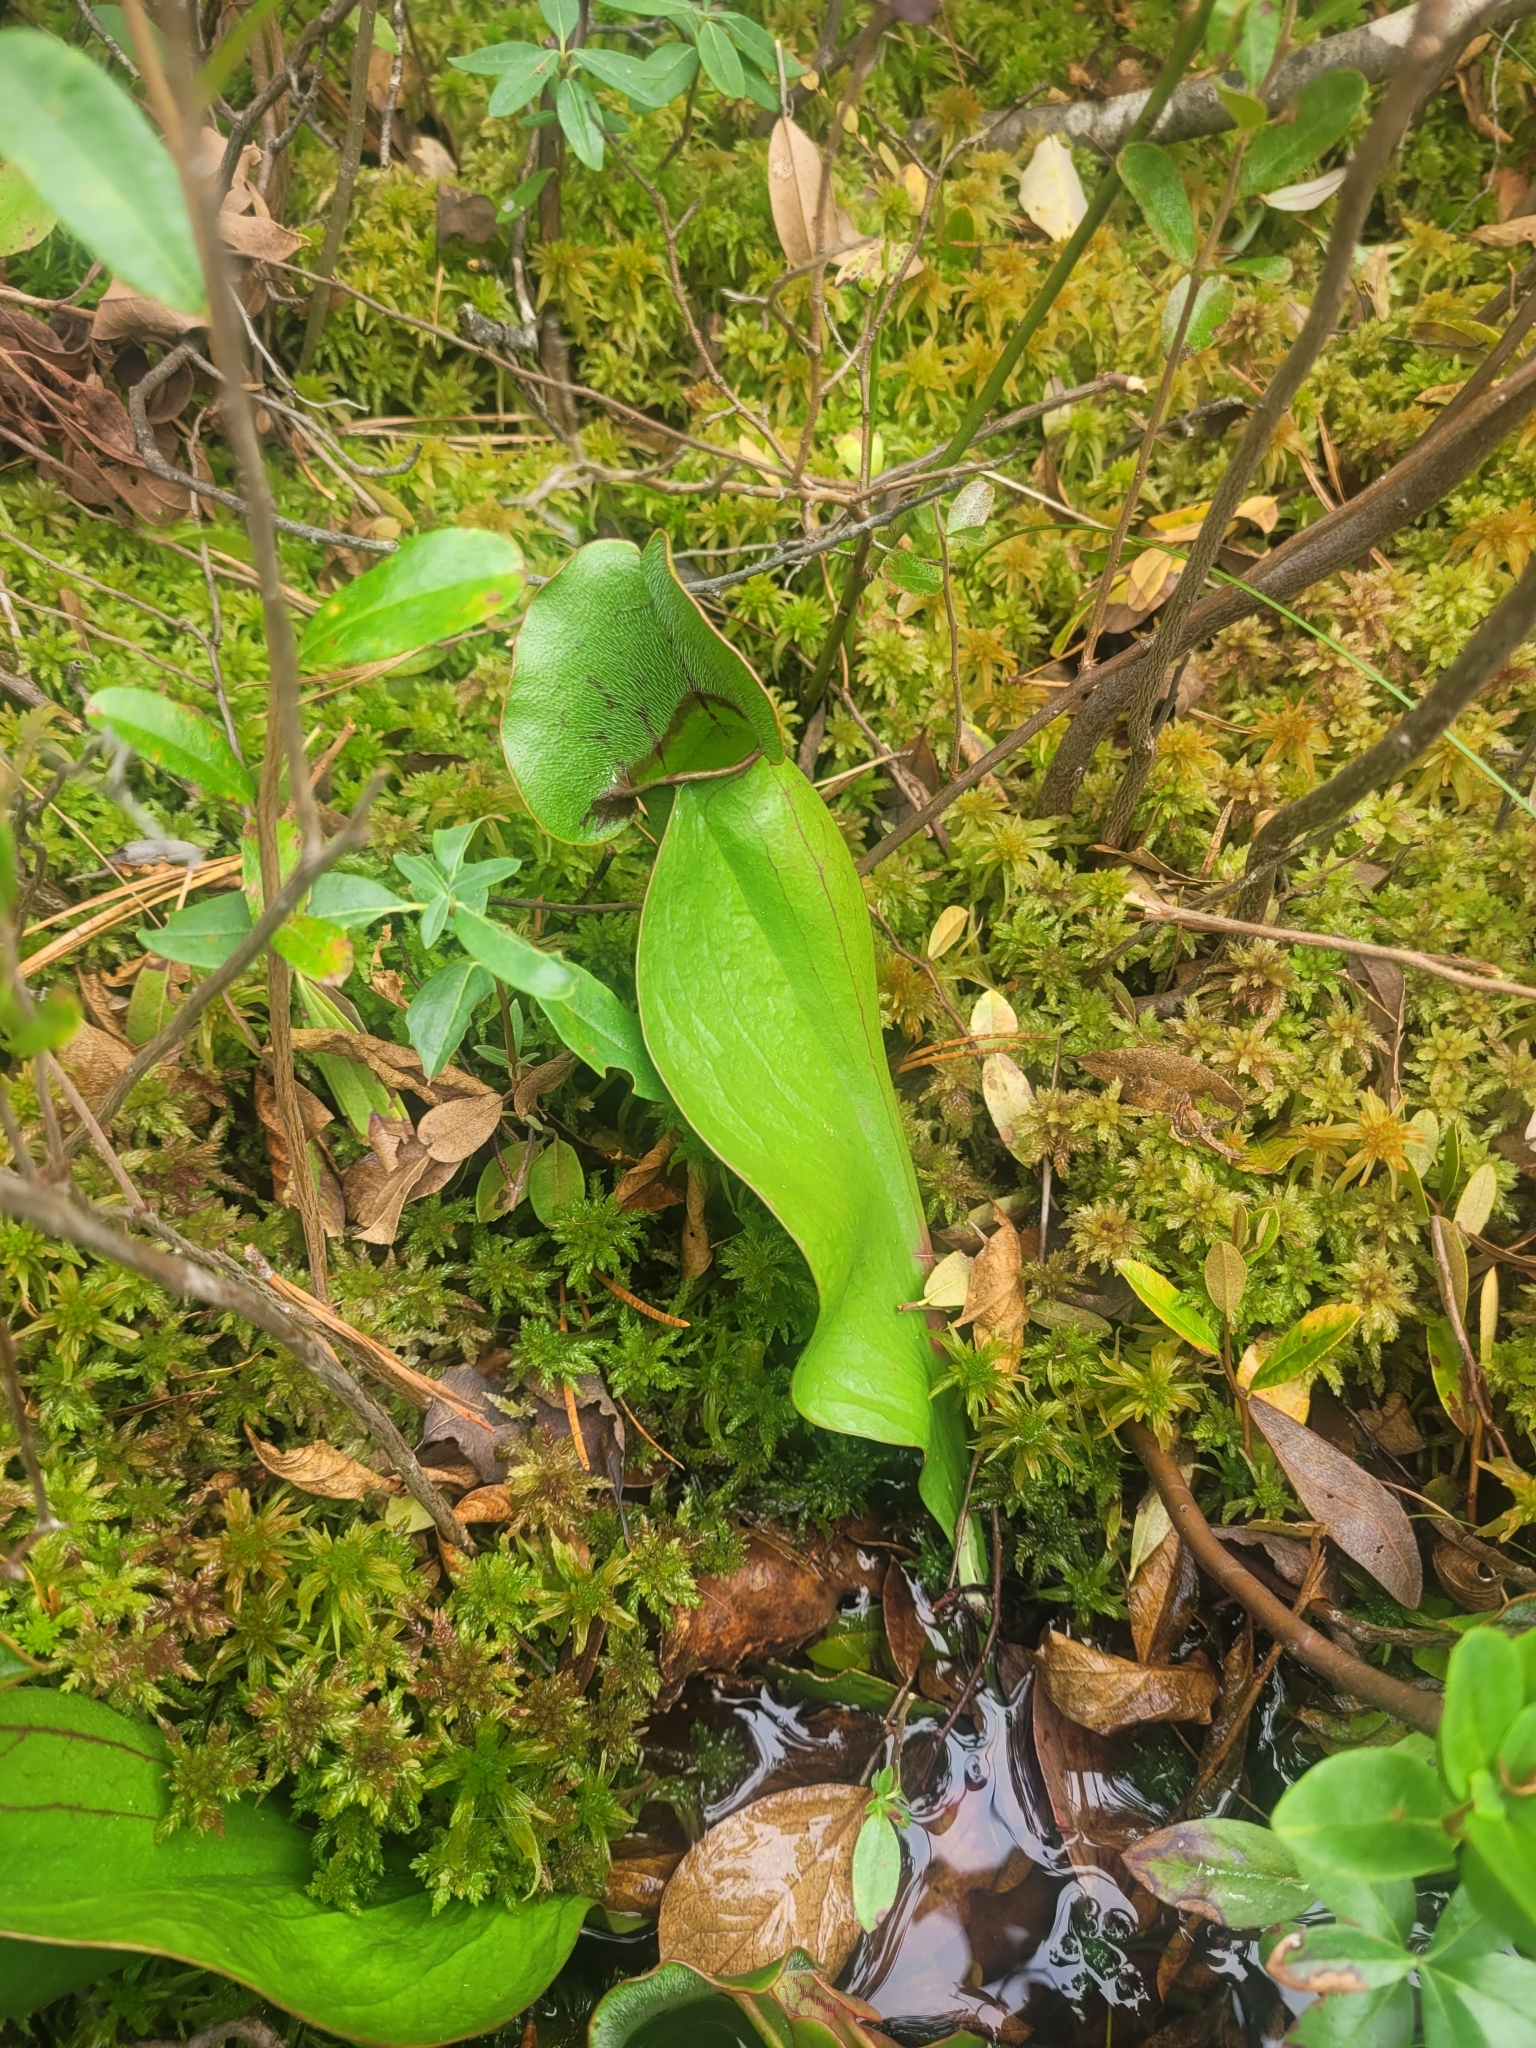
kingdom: Plantae
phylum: Tracheophyta
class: Magnoliopsida
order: Ericales
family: Sarraceniaceae
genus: Sarracenia
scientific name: Sarracenia purpurea
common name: Pitcherplant
